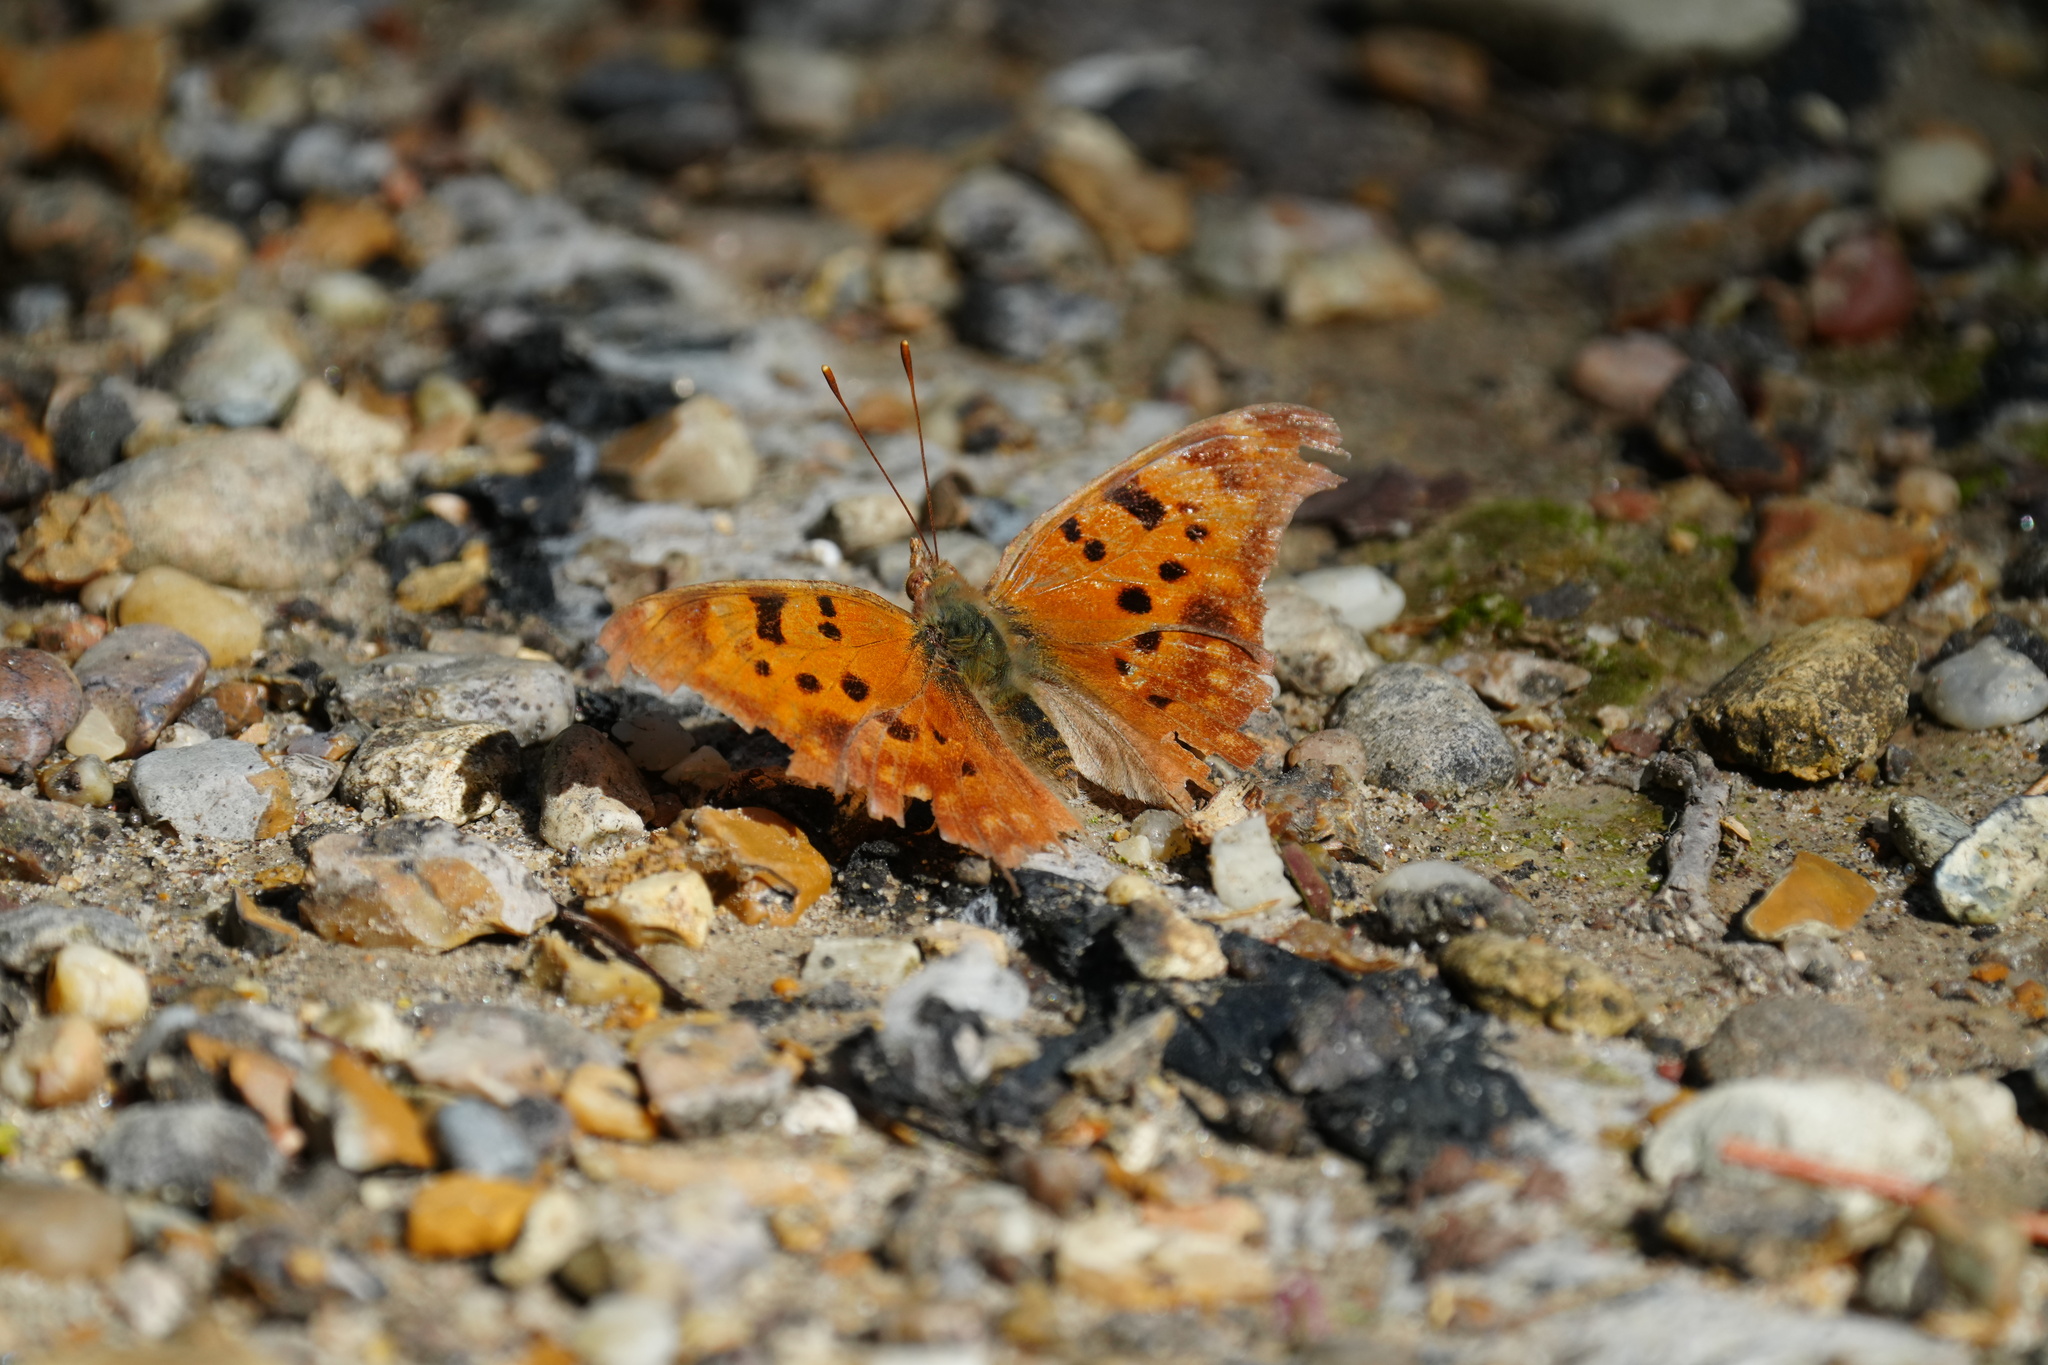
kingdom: Animalia
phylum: Arthropoda
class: Insecta
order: Lepidoptera
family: Nymphalidae
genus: Polygonia
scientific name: Polygonia interrogationis
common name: Question mark
